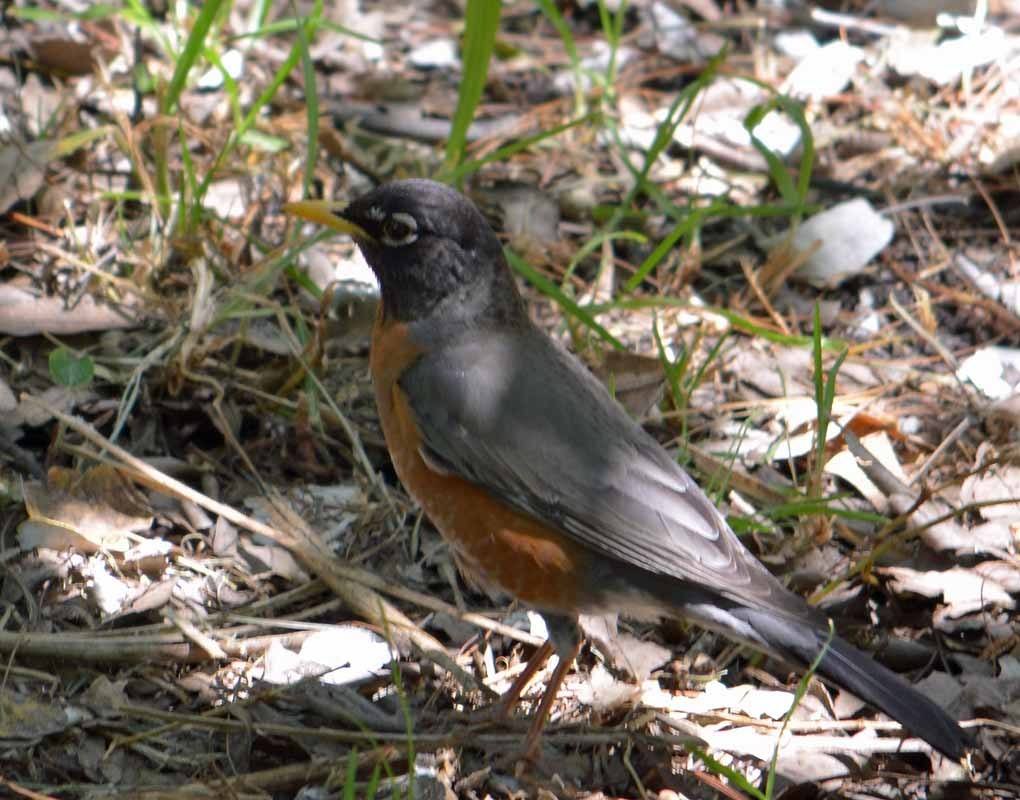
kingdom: Animalia
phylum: Chordata
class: Aves
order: Passeriformes
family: Turdidae
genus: Turdus
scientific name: Turdus migratorius
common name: American robin
